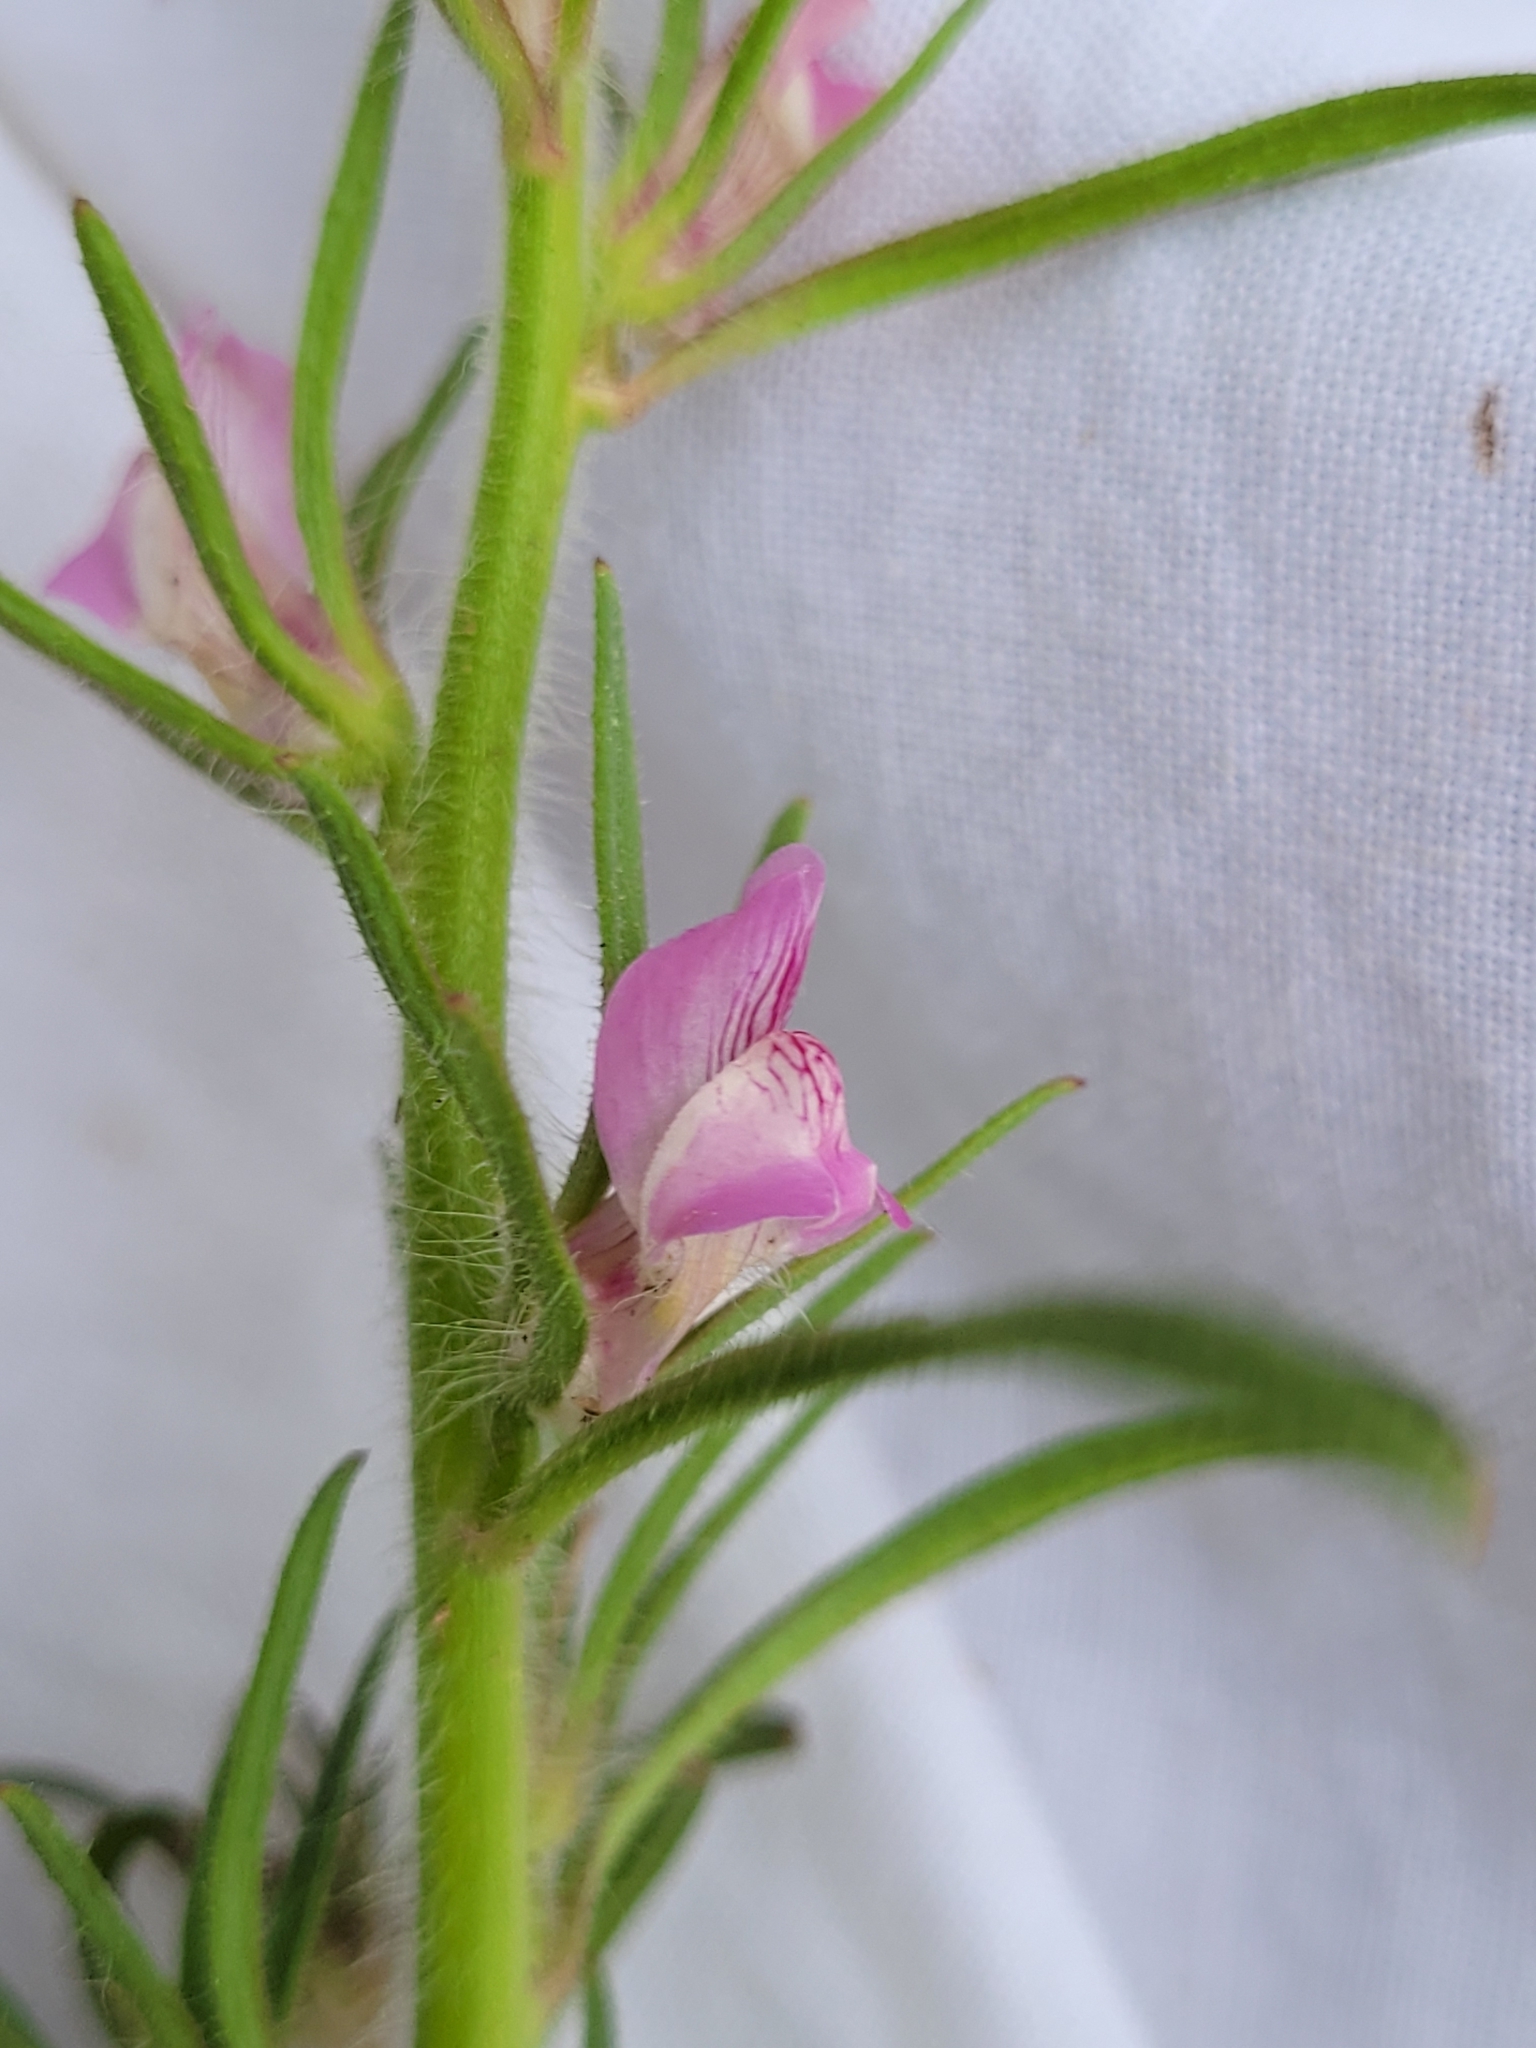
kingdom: Plantae
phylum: Tracheophyta
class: Magnoliopsida
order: Lamiales
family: Plantaginaceae
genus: Misopates
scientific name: Misopates orontium
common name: Weasel's-snout
